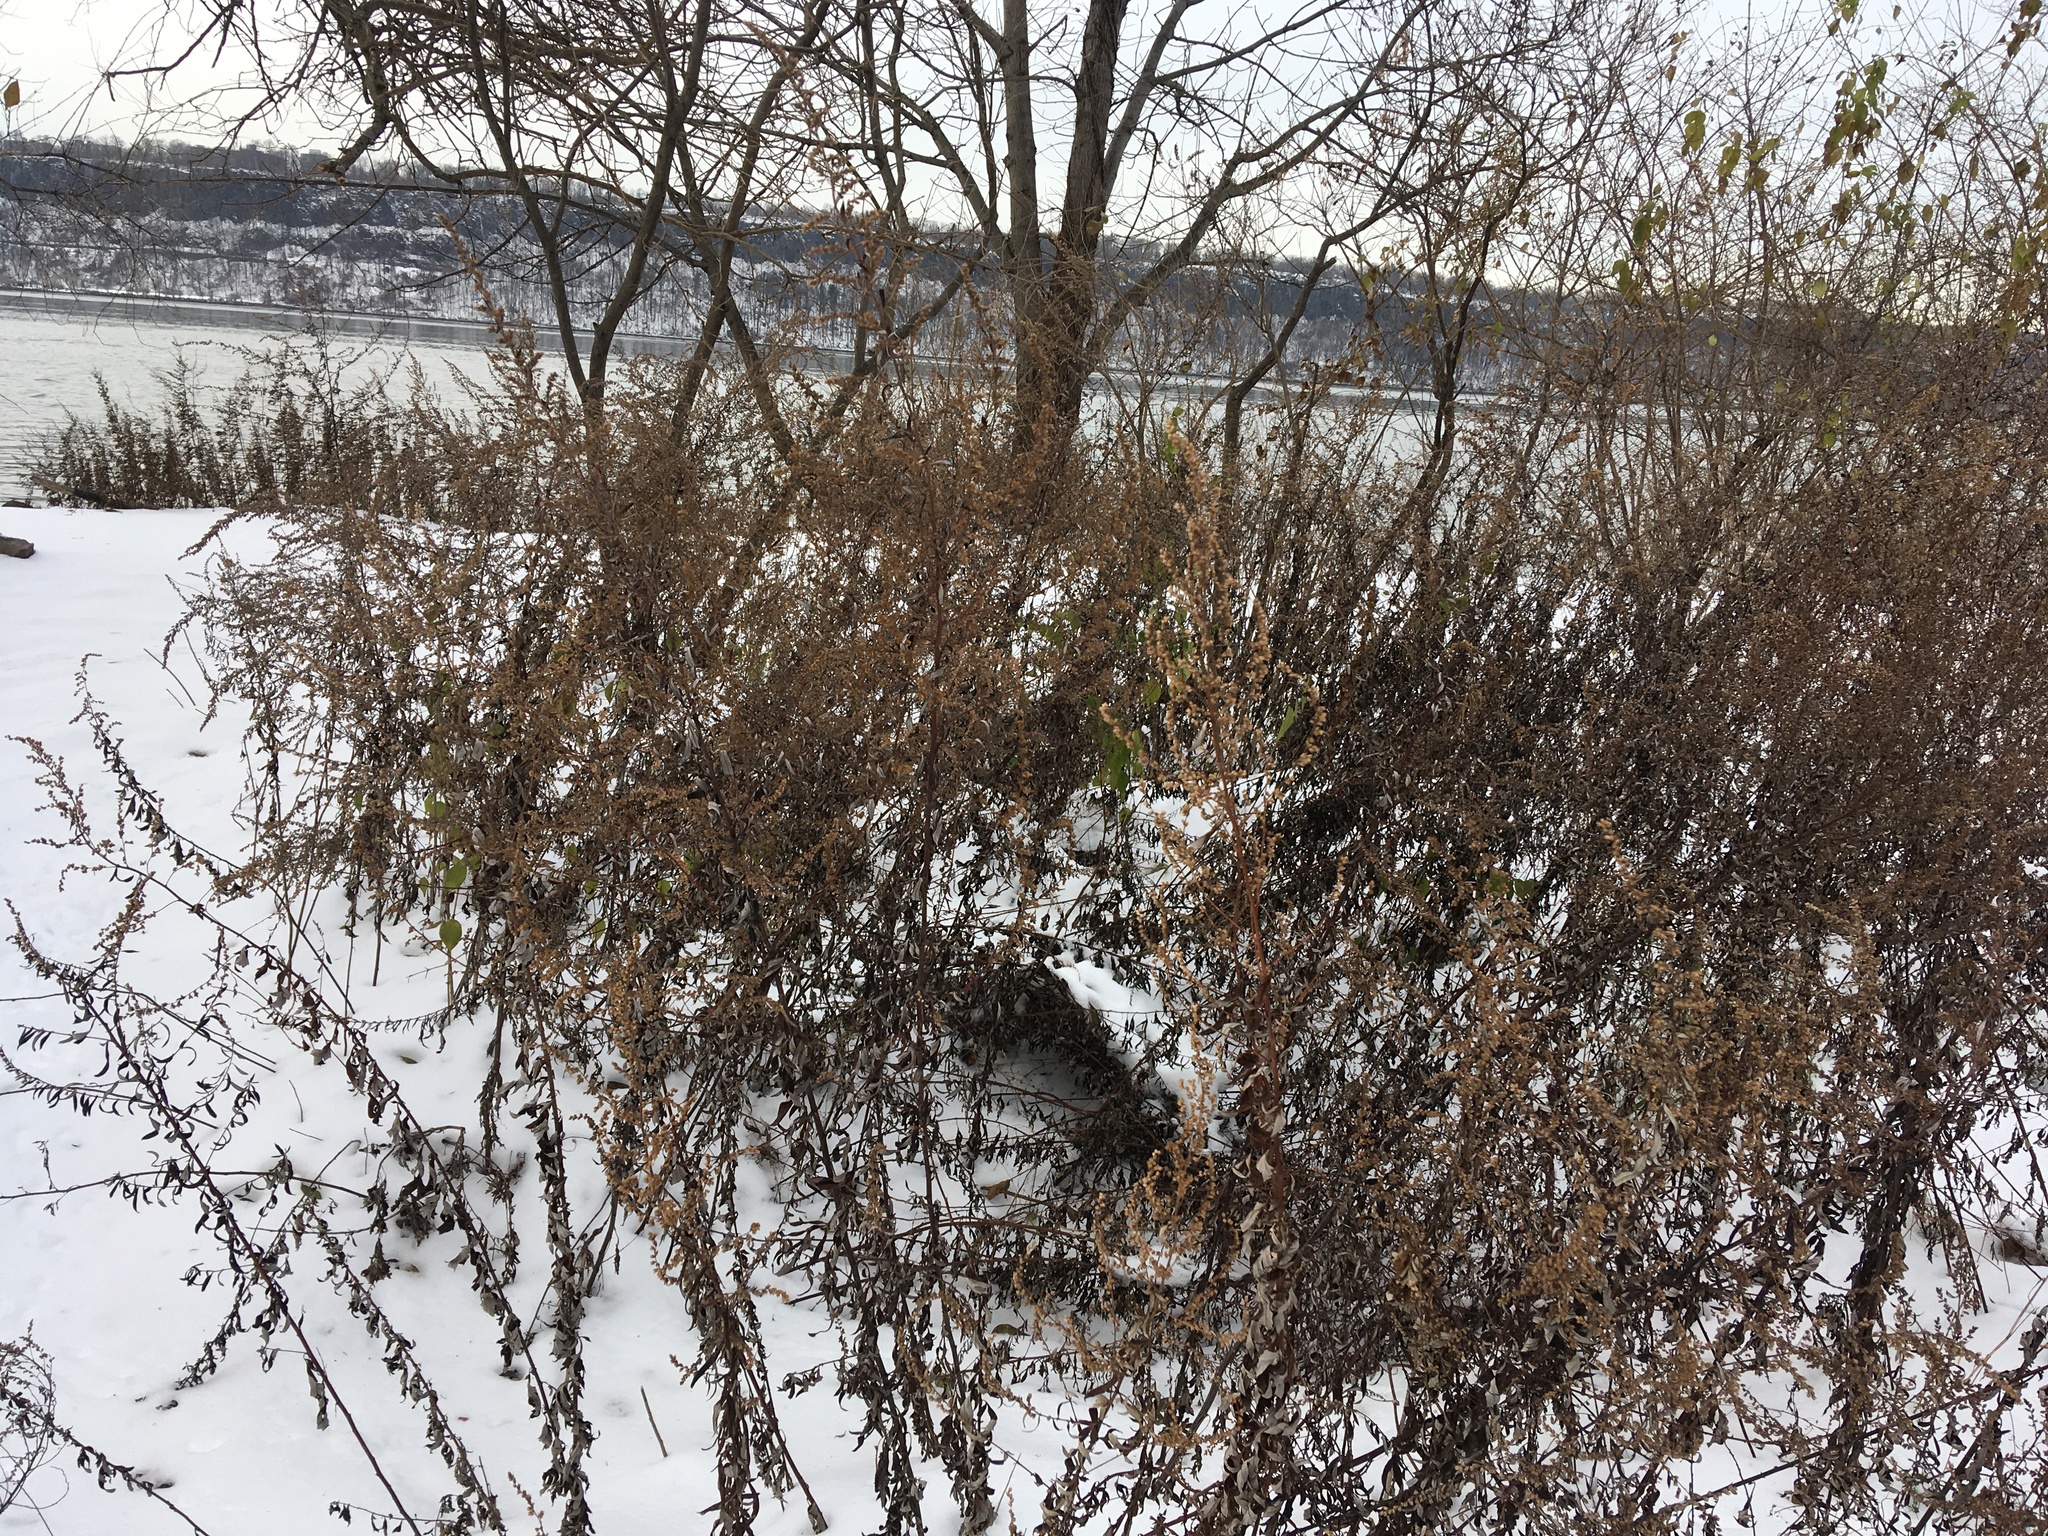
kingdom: Plantae
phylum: Tracheophyta
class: Magnoliopsida
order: Asterales
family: Asteraceae
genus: Artemisia
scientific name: Artemisia vulgaris
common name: Mugwort
